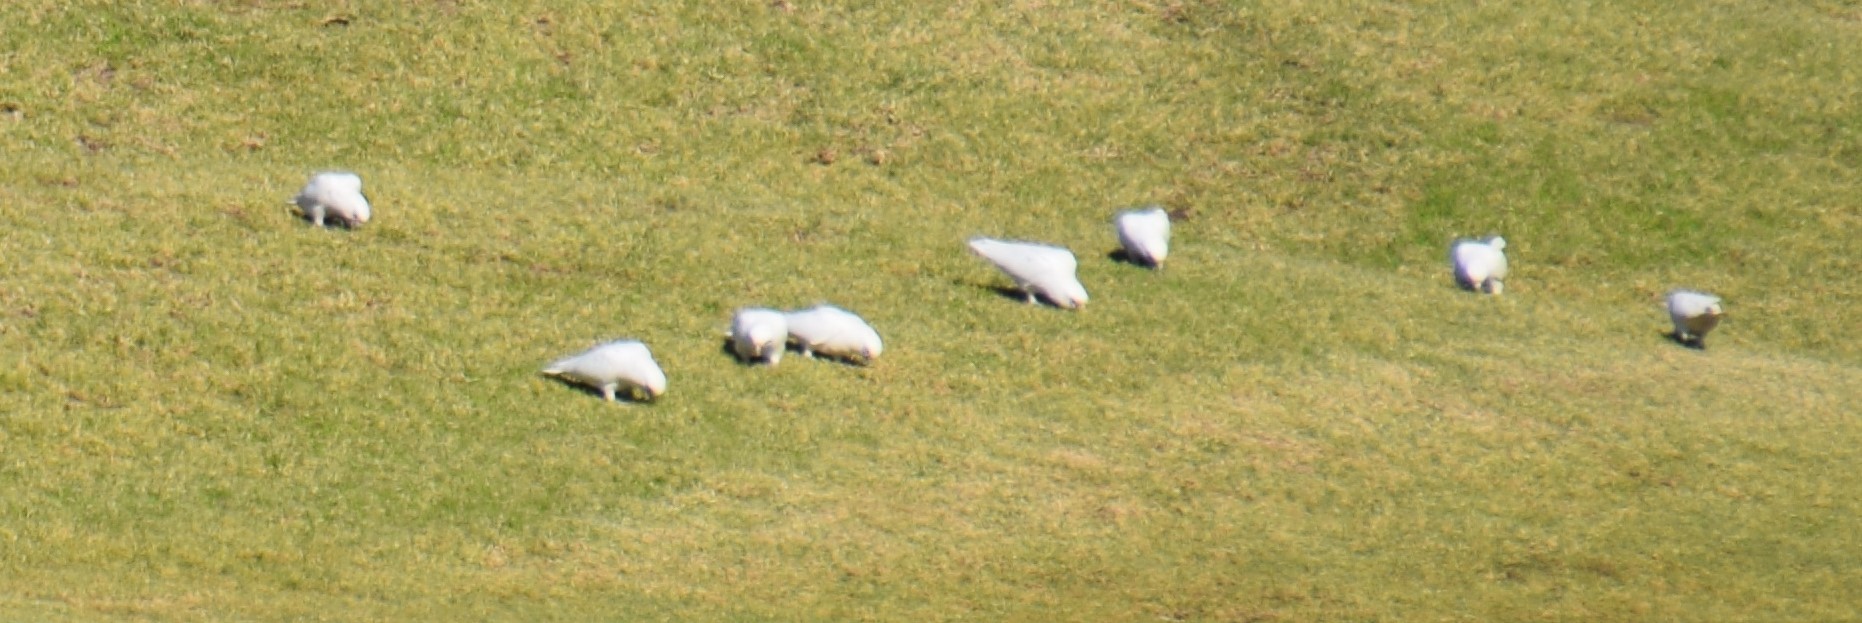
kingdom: Animalia
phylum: Chordata
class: Aves
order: Psittaciformes
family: Psittacidae
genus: Cacatua
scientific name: Cacatua sanguinea
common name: Little corella
